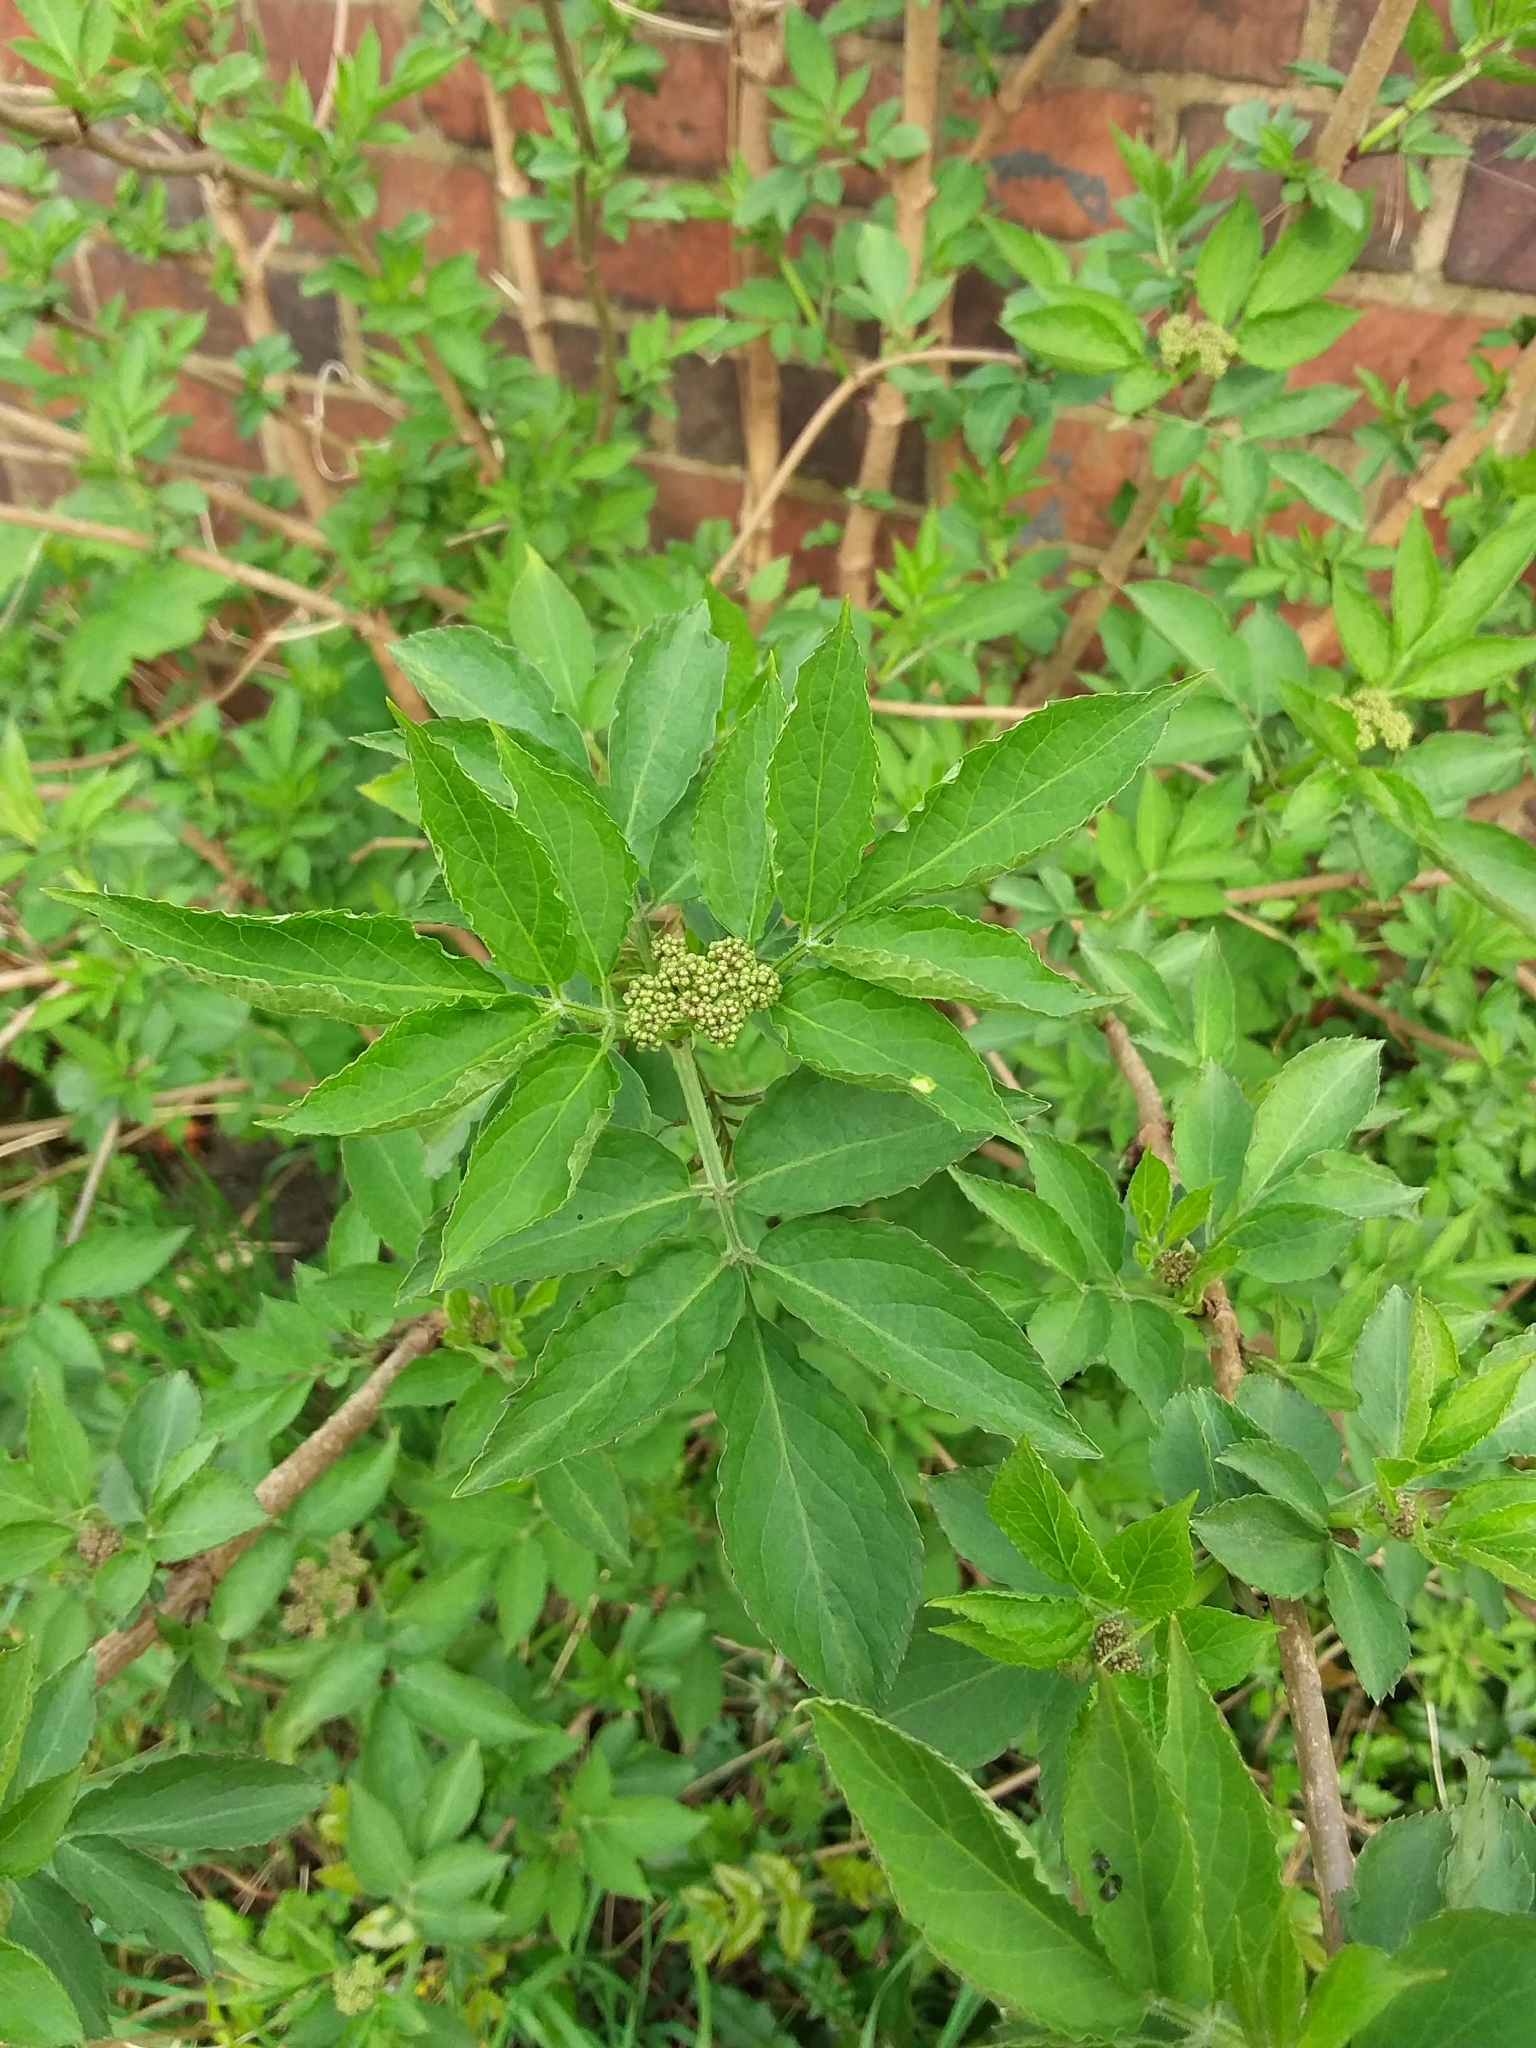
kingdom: Plantae
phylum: Tracheophyta
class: Magnoliopsida
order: Dipsacales
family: Viburnaceae
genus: Sambucus
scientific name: Sambucus nigra
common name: Elder
